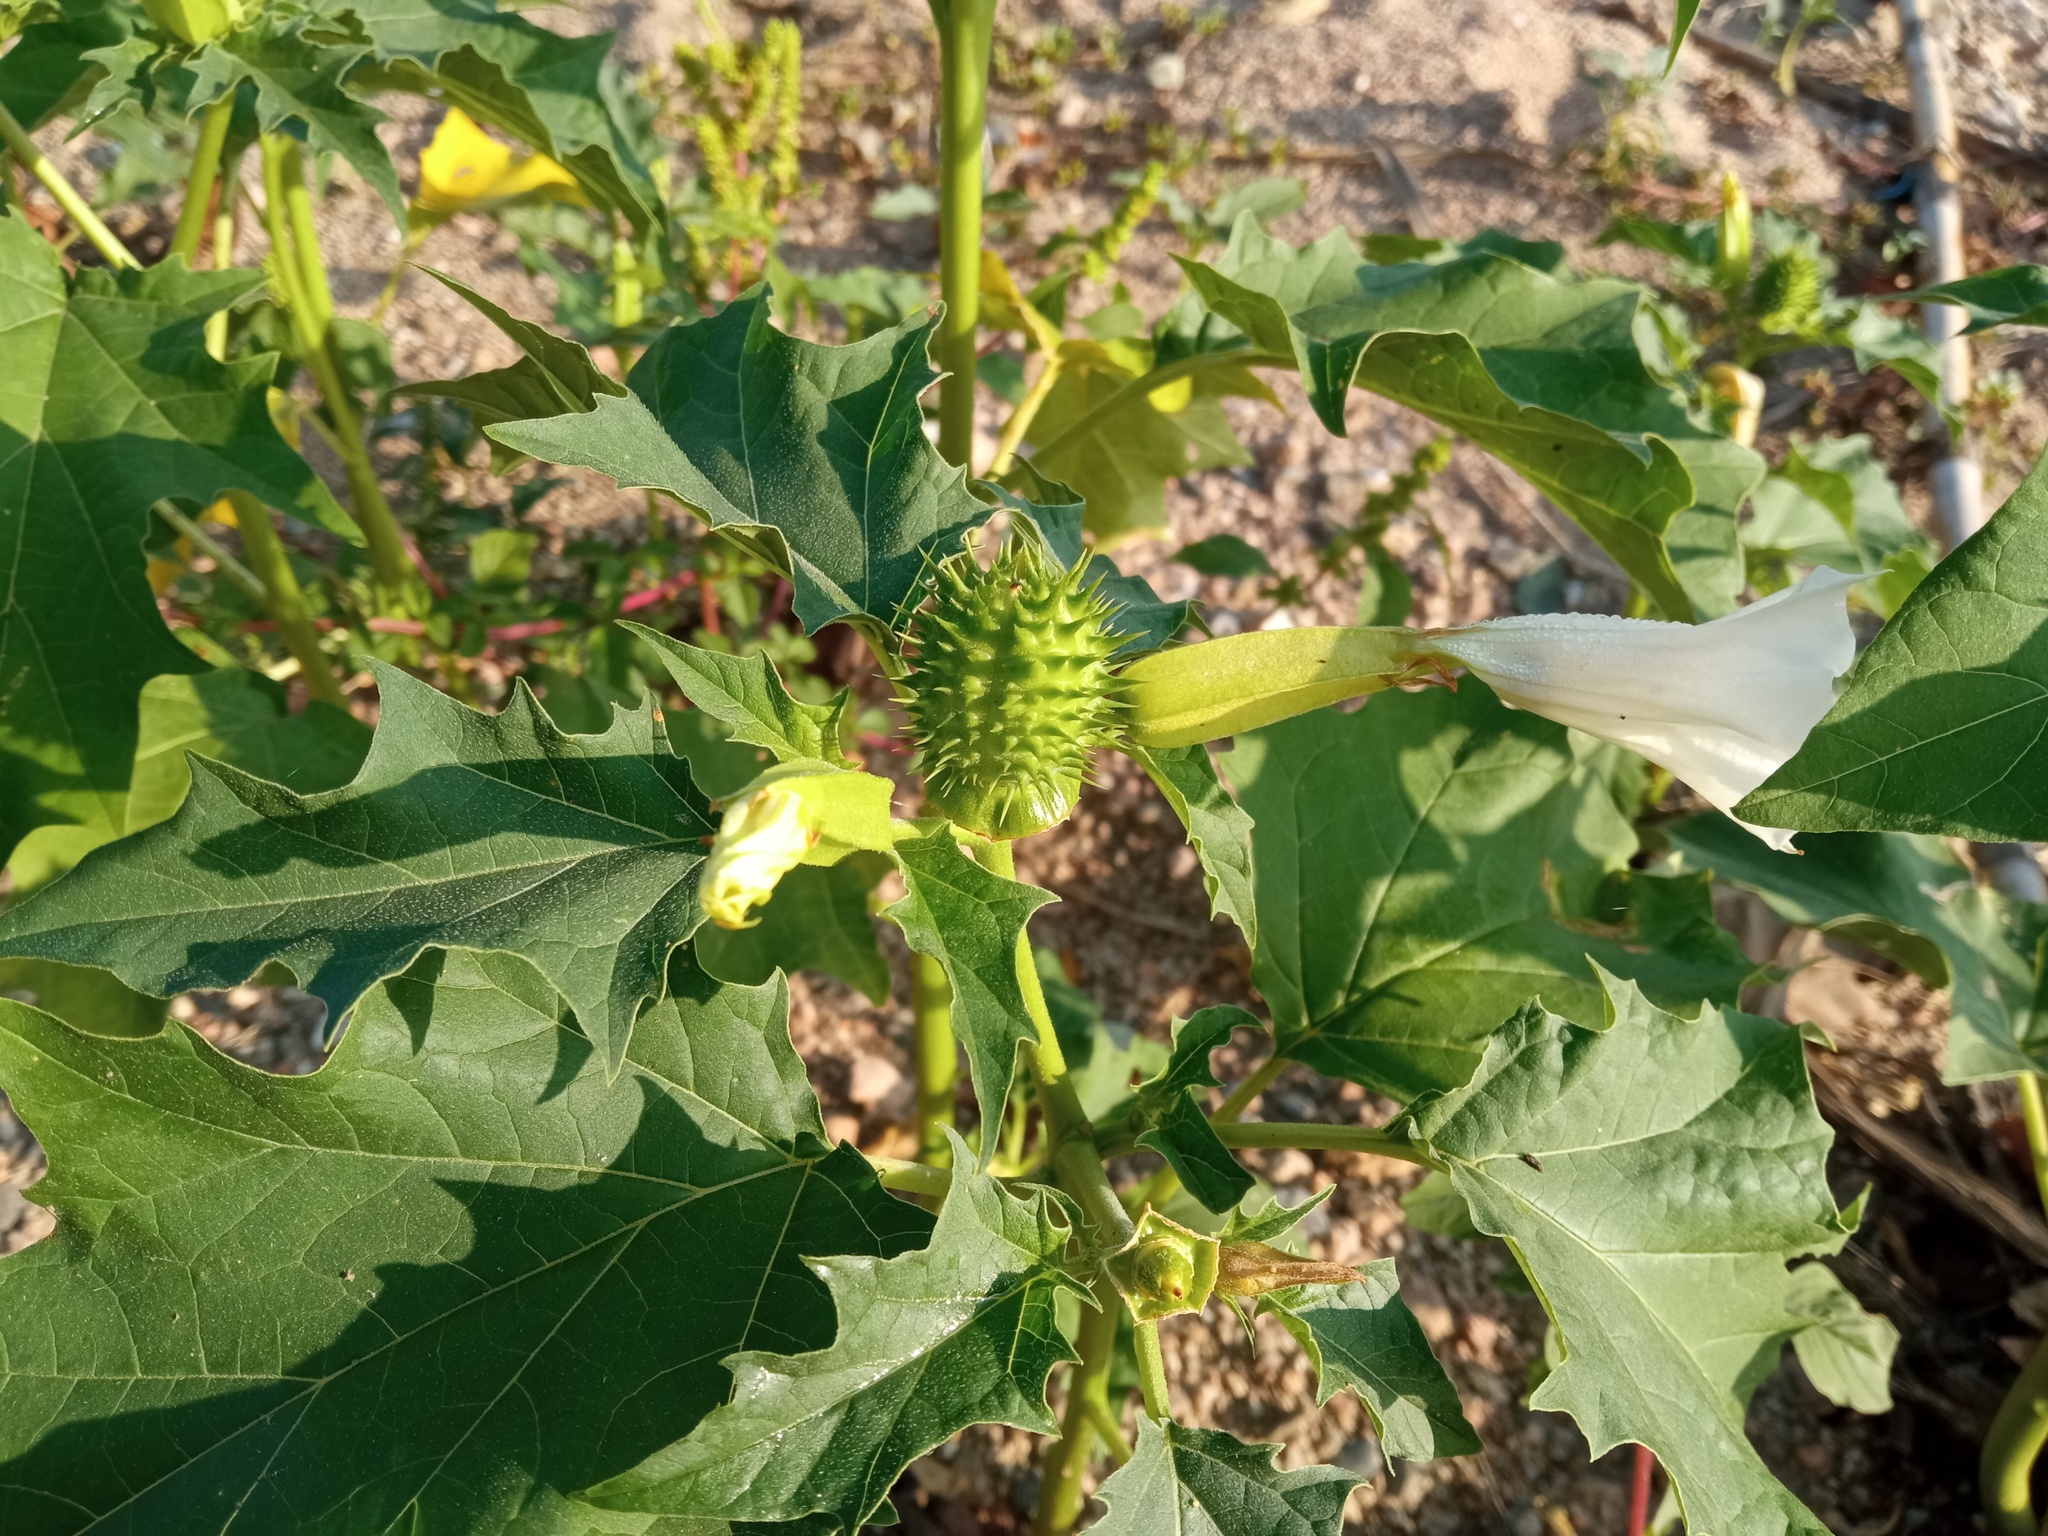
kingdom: Plantae
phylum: Tracheophyta
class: Magnoliopsida
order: Solanales
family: Solanaceae
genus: Datura
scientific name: Datura stramonium
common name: Thorn-apple
